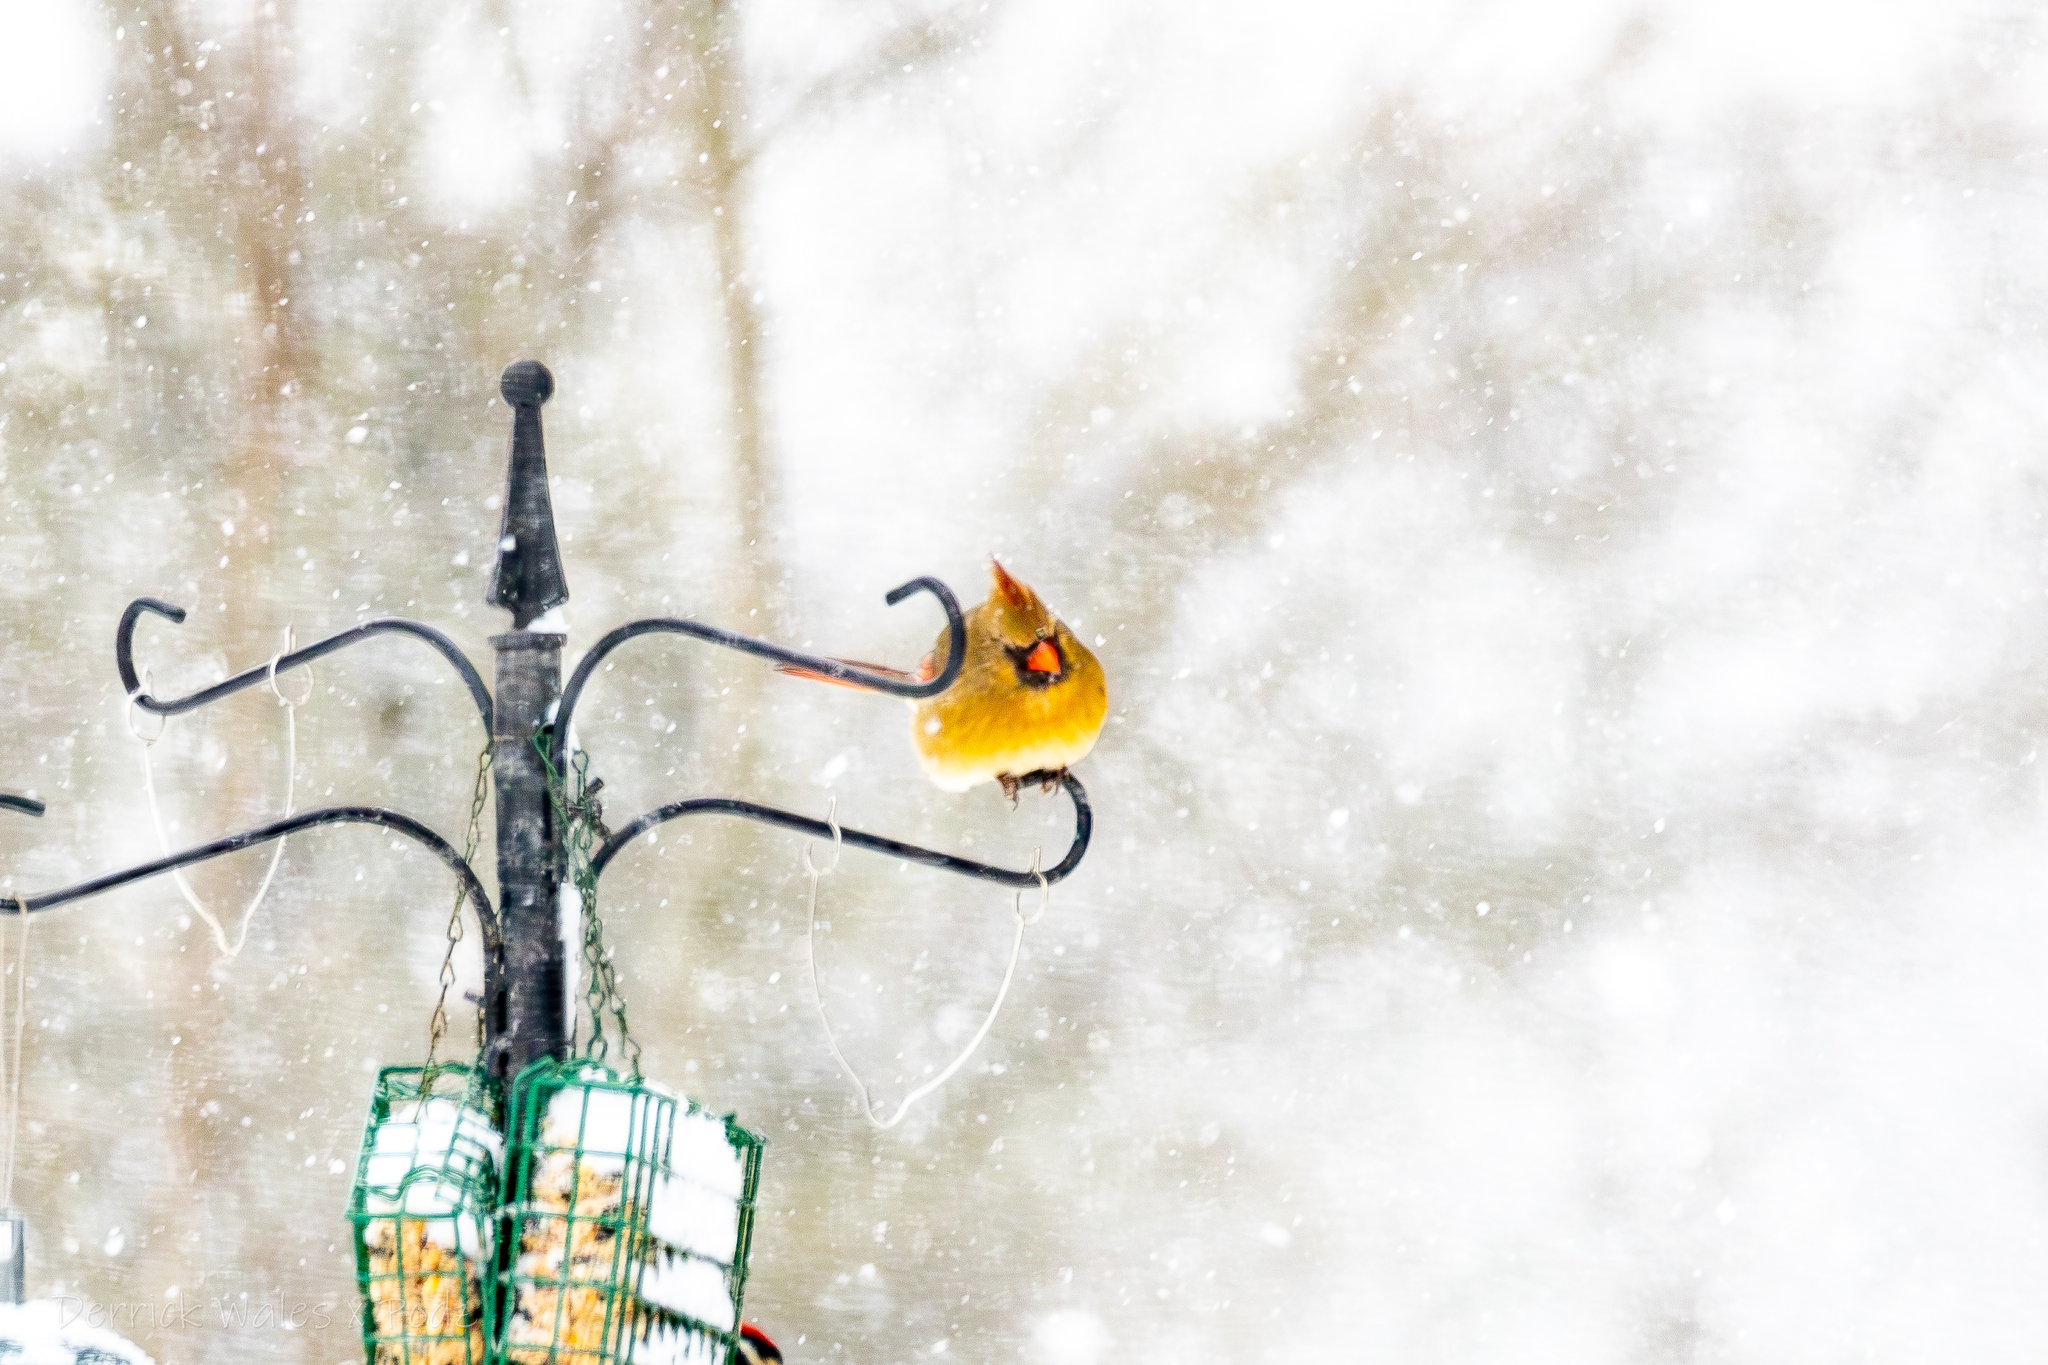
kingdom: Animalia
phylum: Chordata
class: Aves
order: Passeriformes
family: Cardinalidae
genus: Cardinalis
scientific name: Cardinalis cardinalis
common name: Northern cardinal
